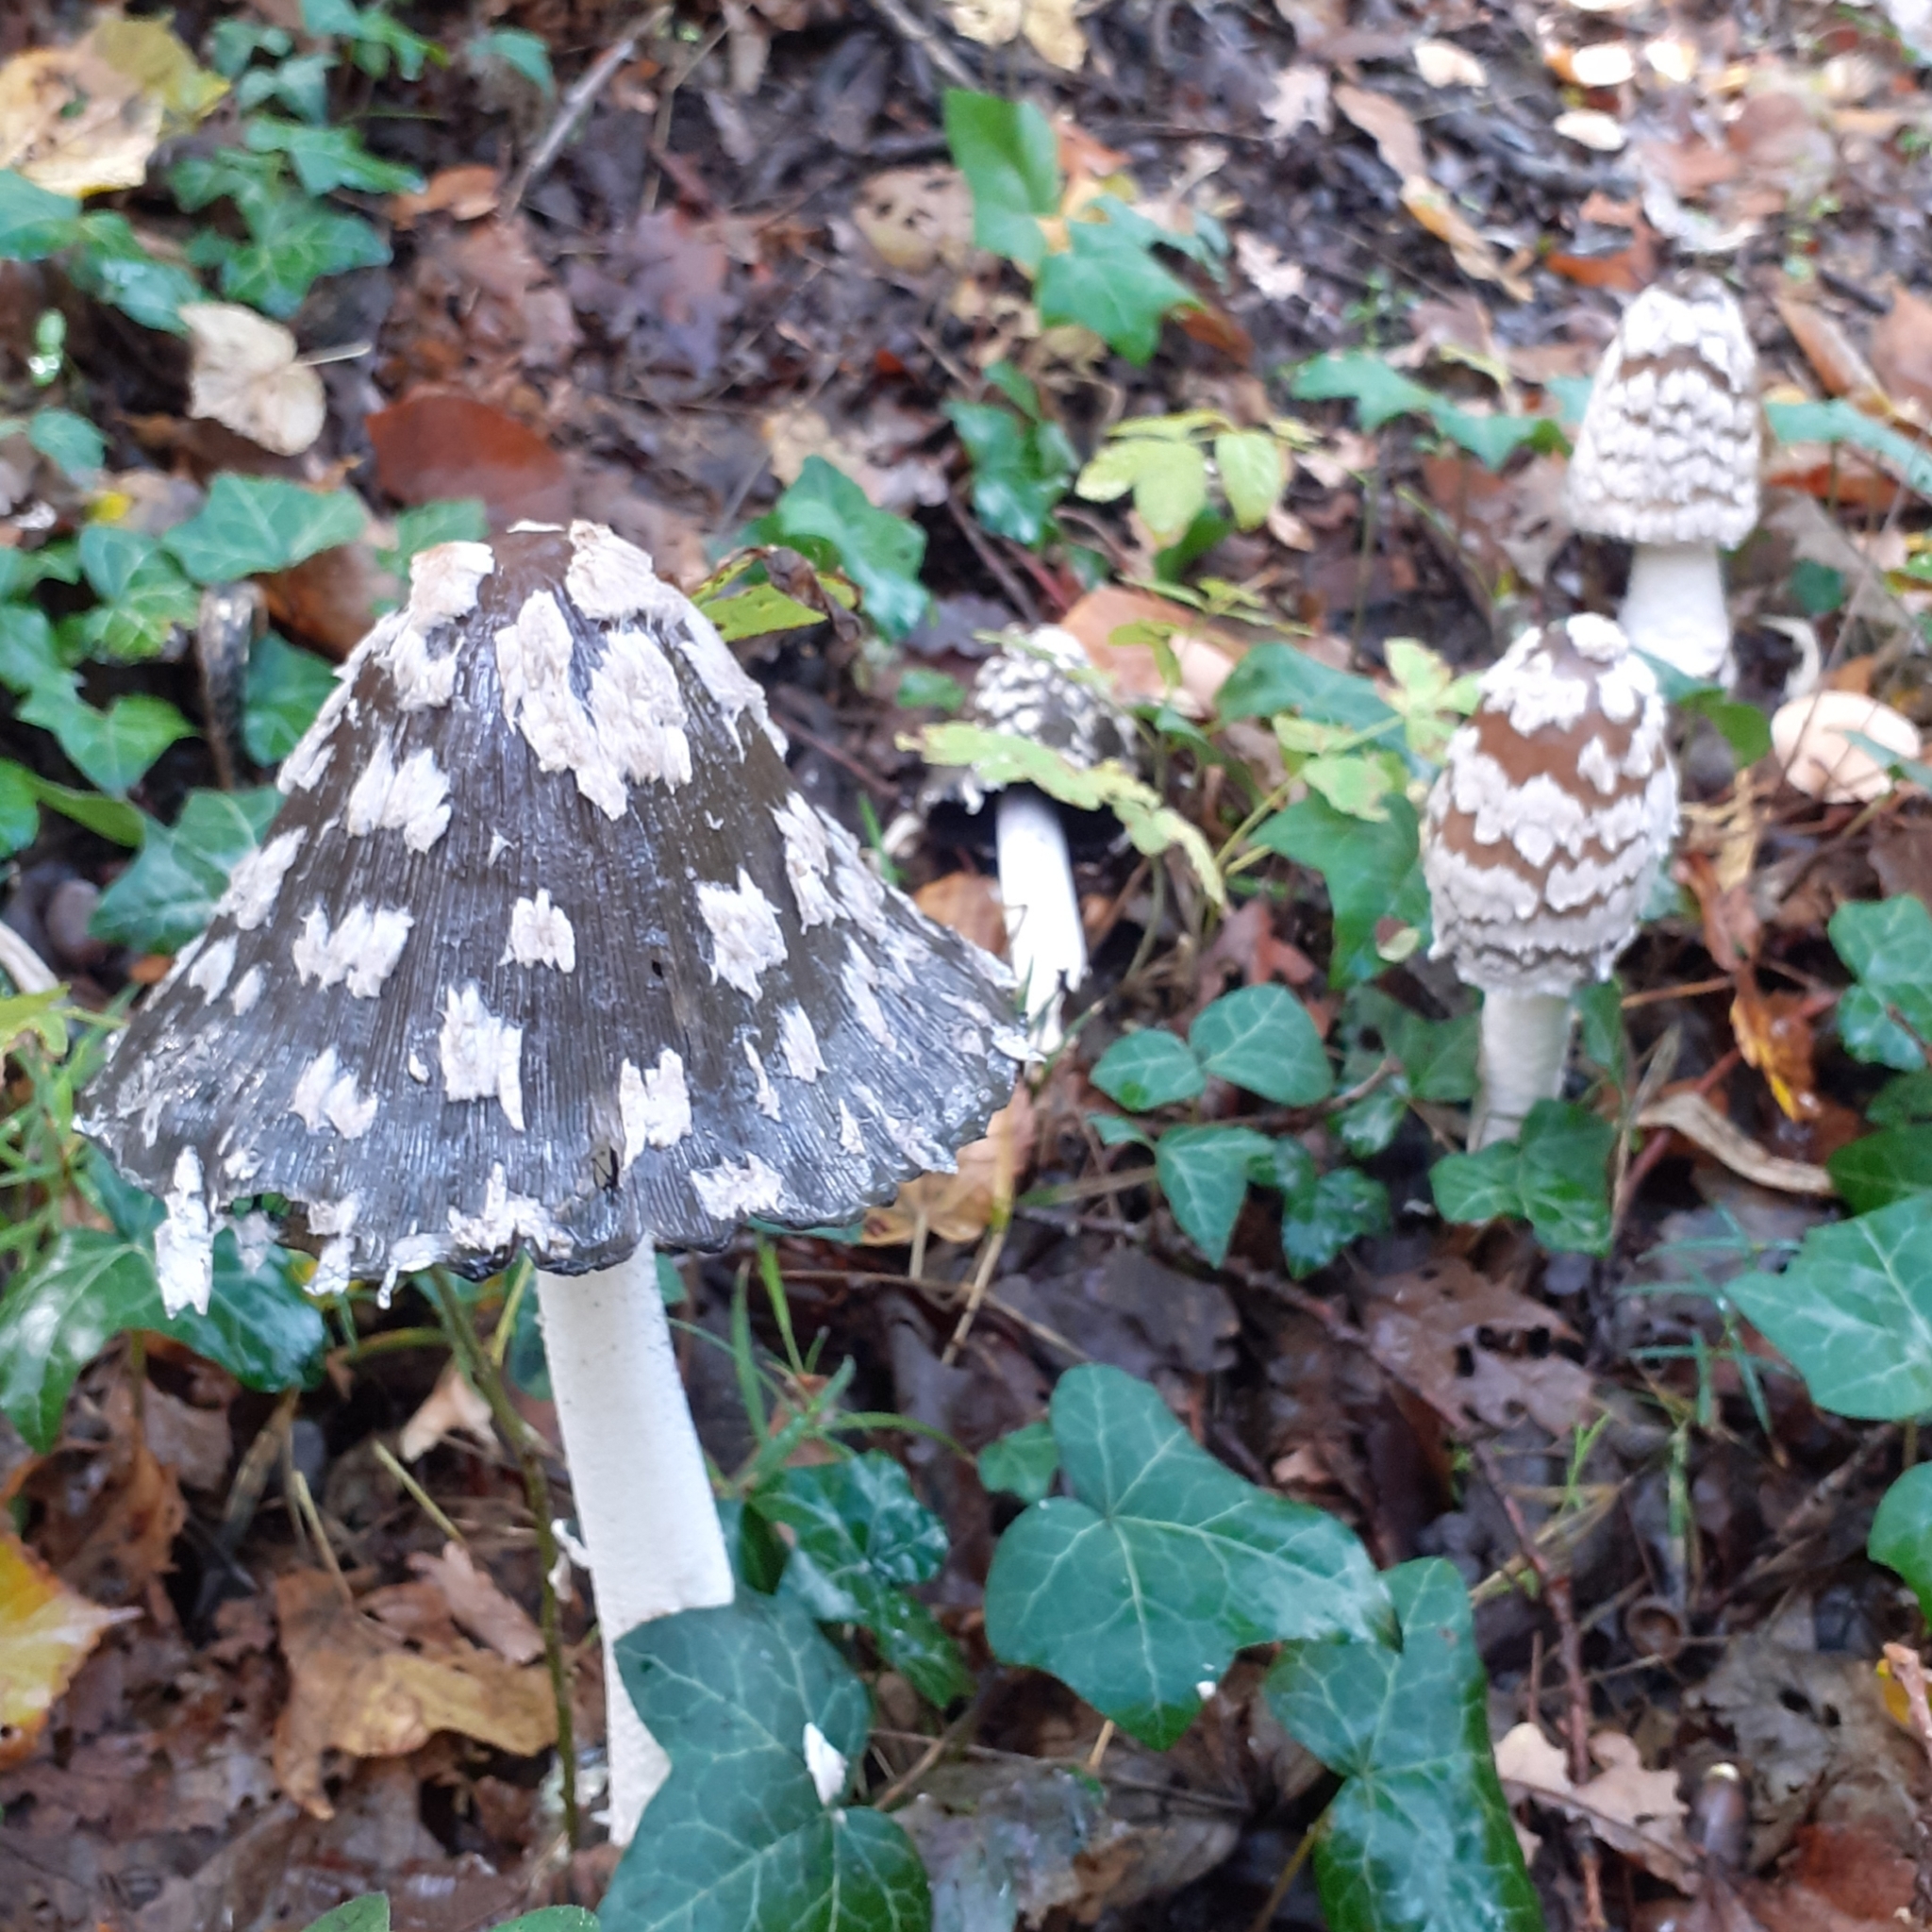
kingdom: Fungi
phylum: Basidiomycota
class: Agaricomycetes
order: Agaricales
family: Psathyrellaceae
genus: Coprinopsis
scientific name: Coprinopsis picacea
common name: Magpie inkcap
